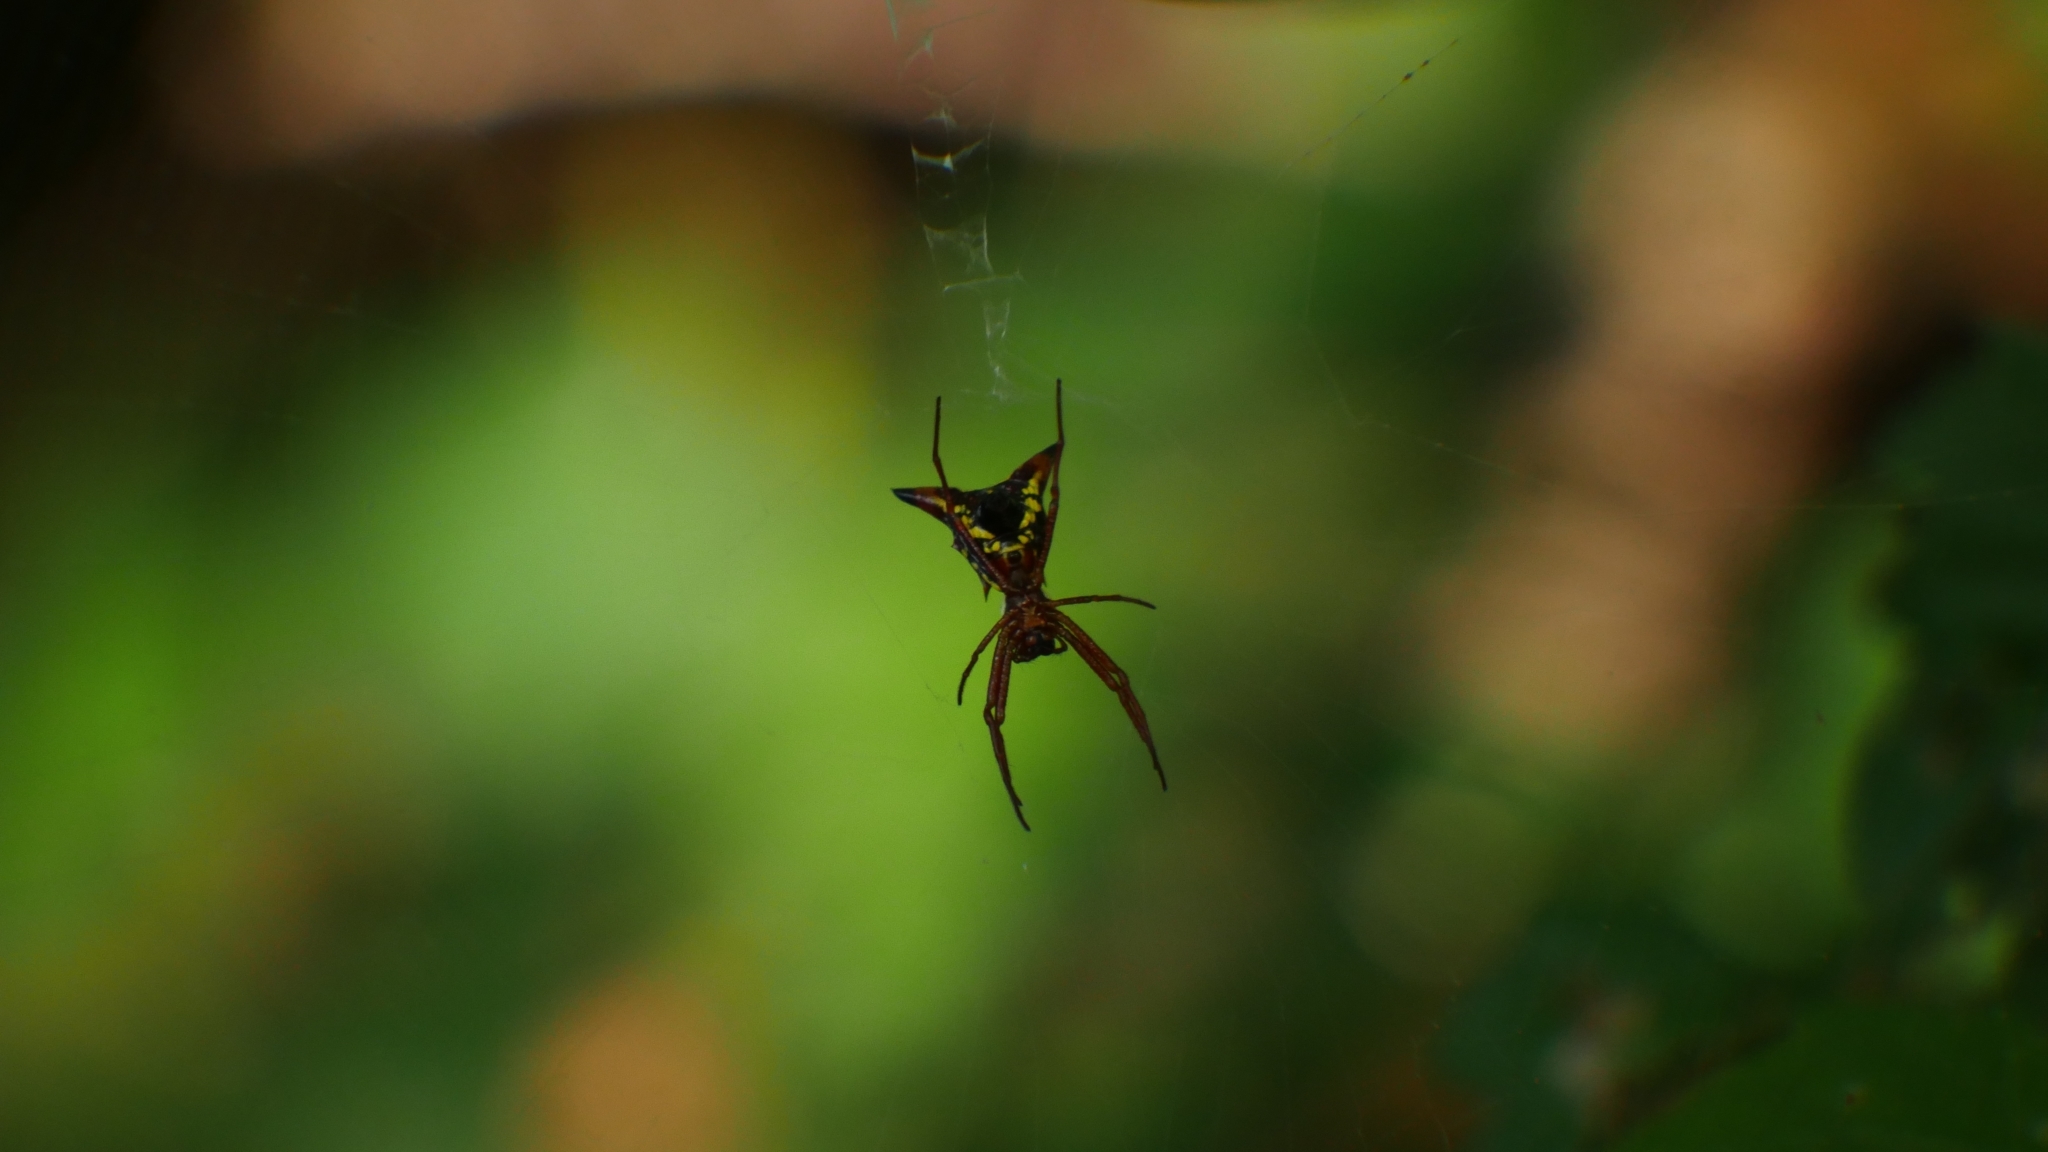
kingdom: Animalia
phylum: Arthropoda
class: Arachnida
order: Araneae
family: Araneidae
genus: Micrathena
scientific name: Micrathena sagittata
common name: Orb weavers
